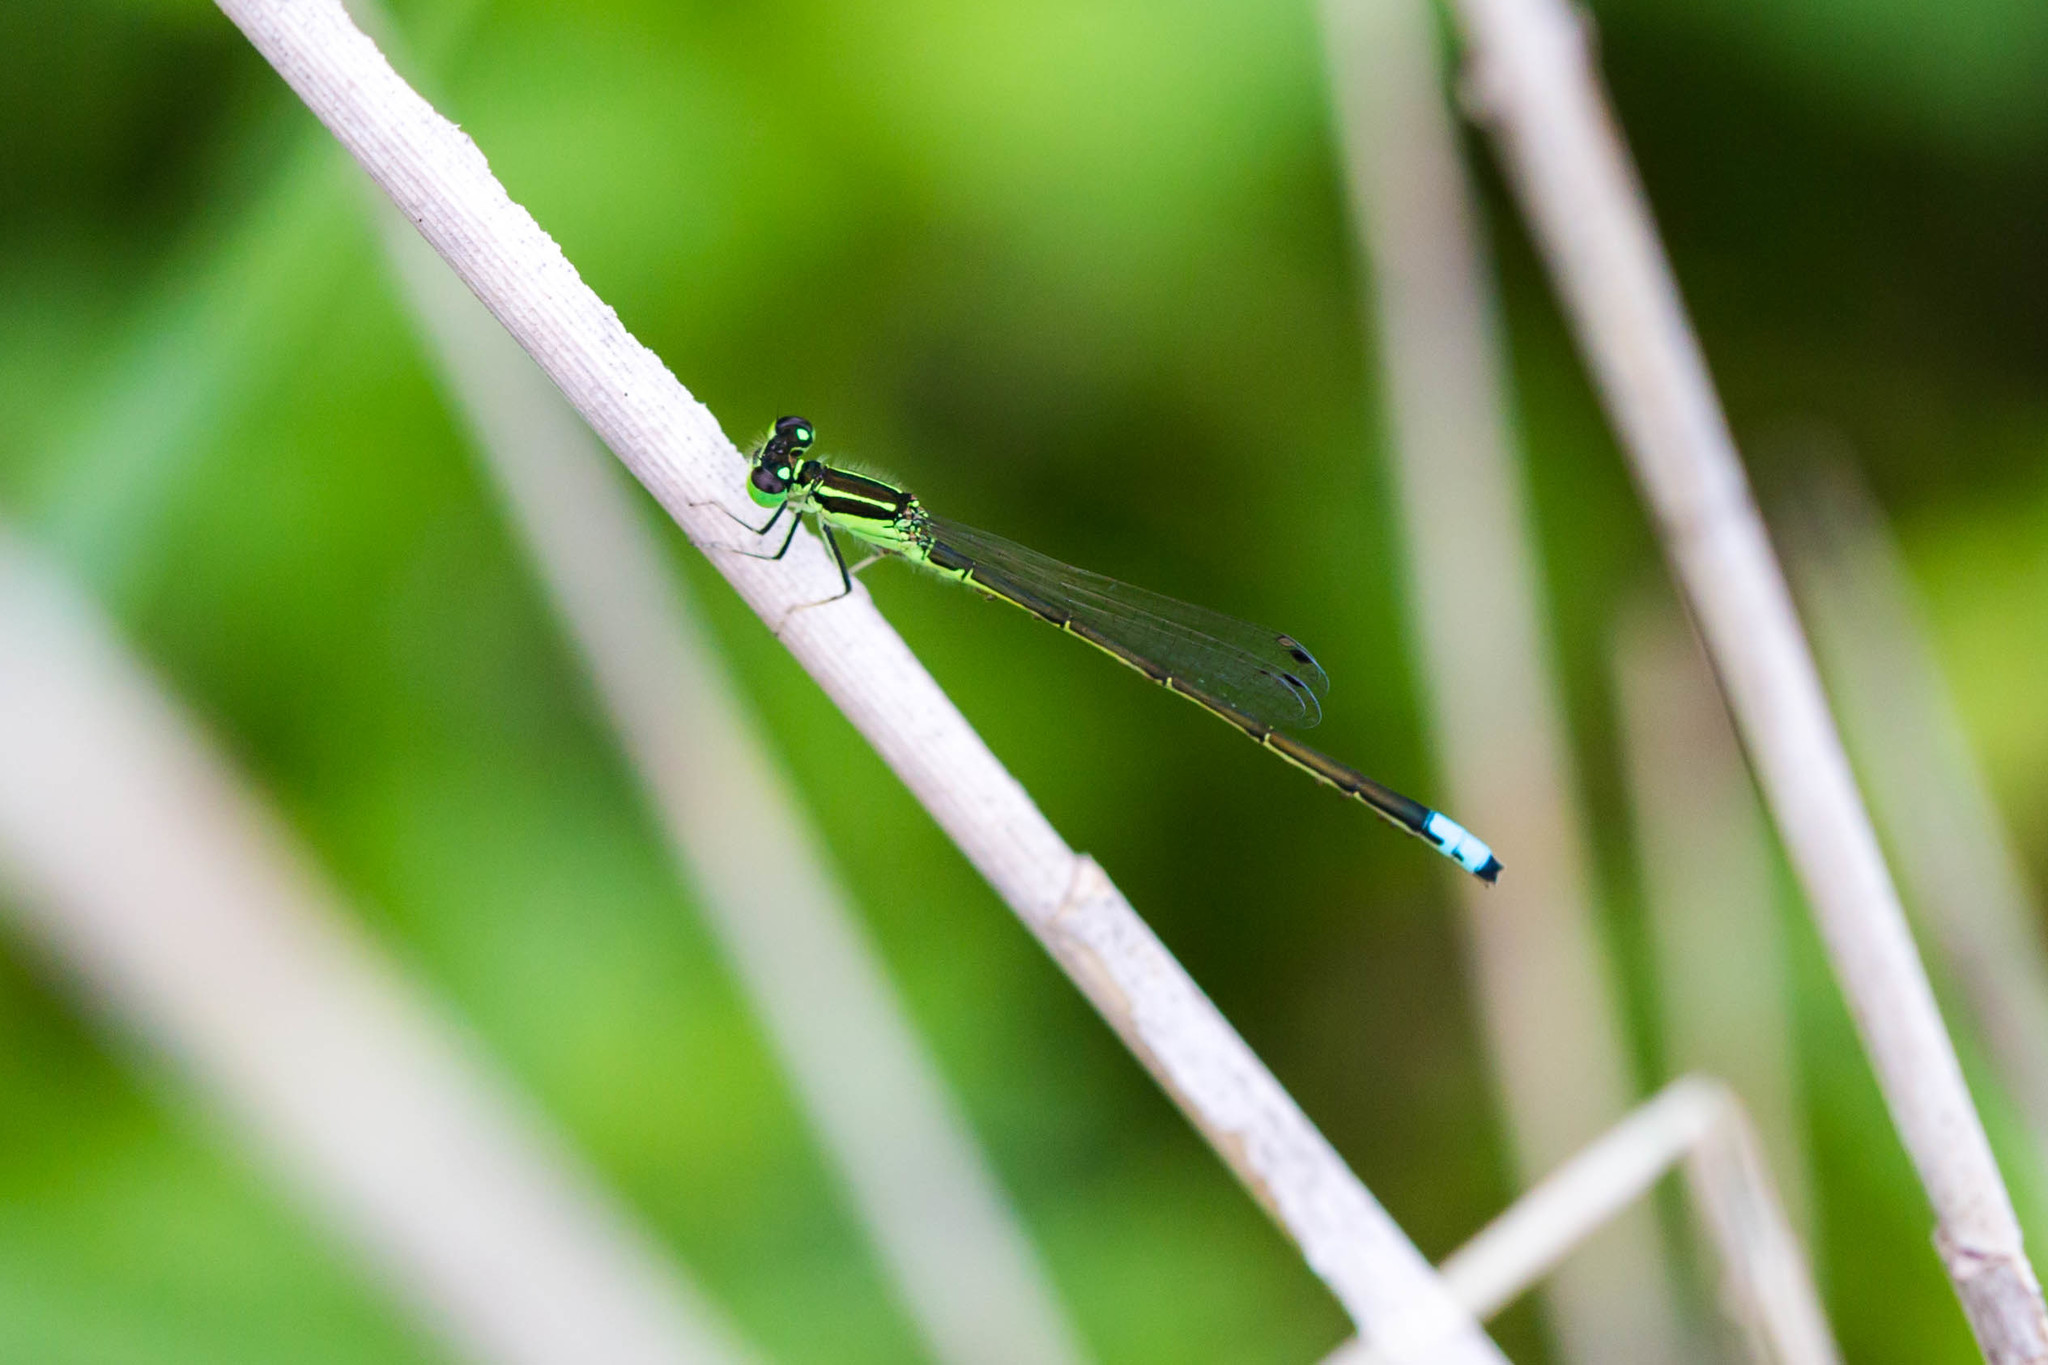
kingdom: Animalia
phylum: Arthropoda
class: Insecta
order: Odonata
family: Coenagrionidae
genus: Ischnura
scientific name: Ischnura verticalis
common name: Eastern forktail
